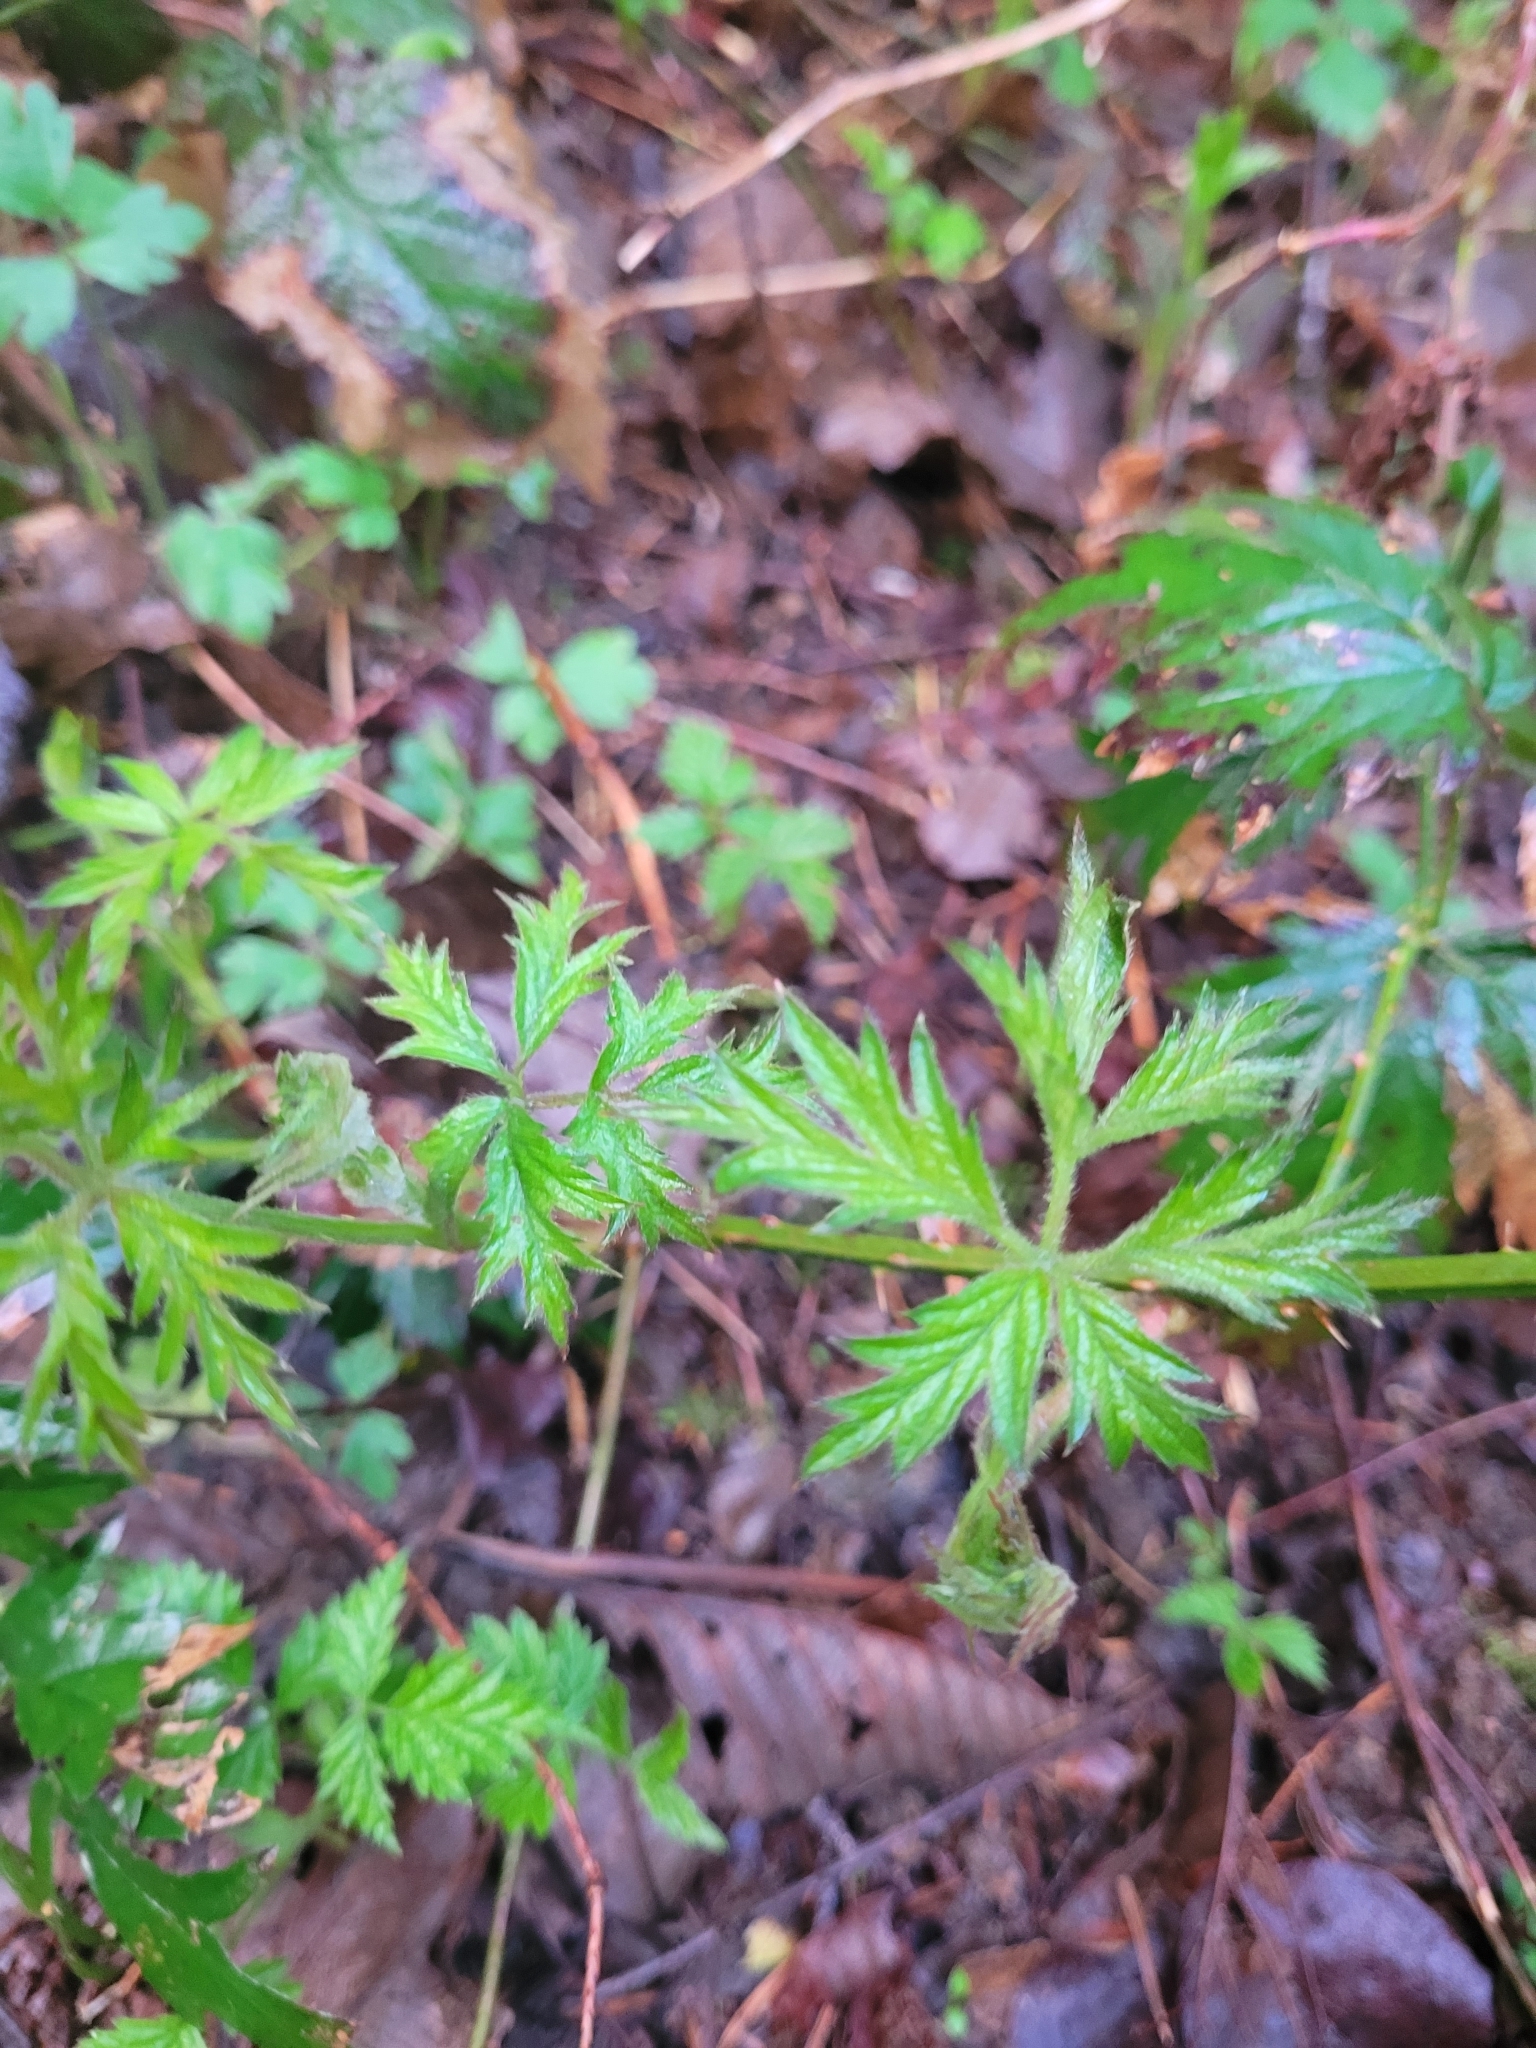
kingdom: Plantae
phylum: Tracheophyta
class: Magnoliopsida
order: Rosales
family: Rosaceae
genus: Rubus
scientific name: Rubus laciniatus
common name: Evergreen blackberry
